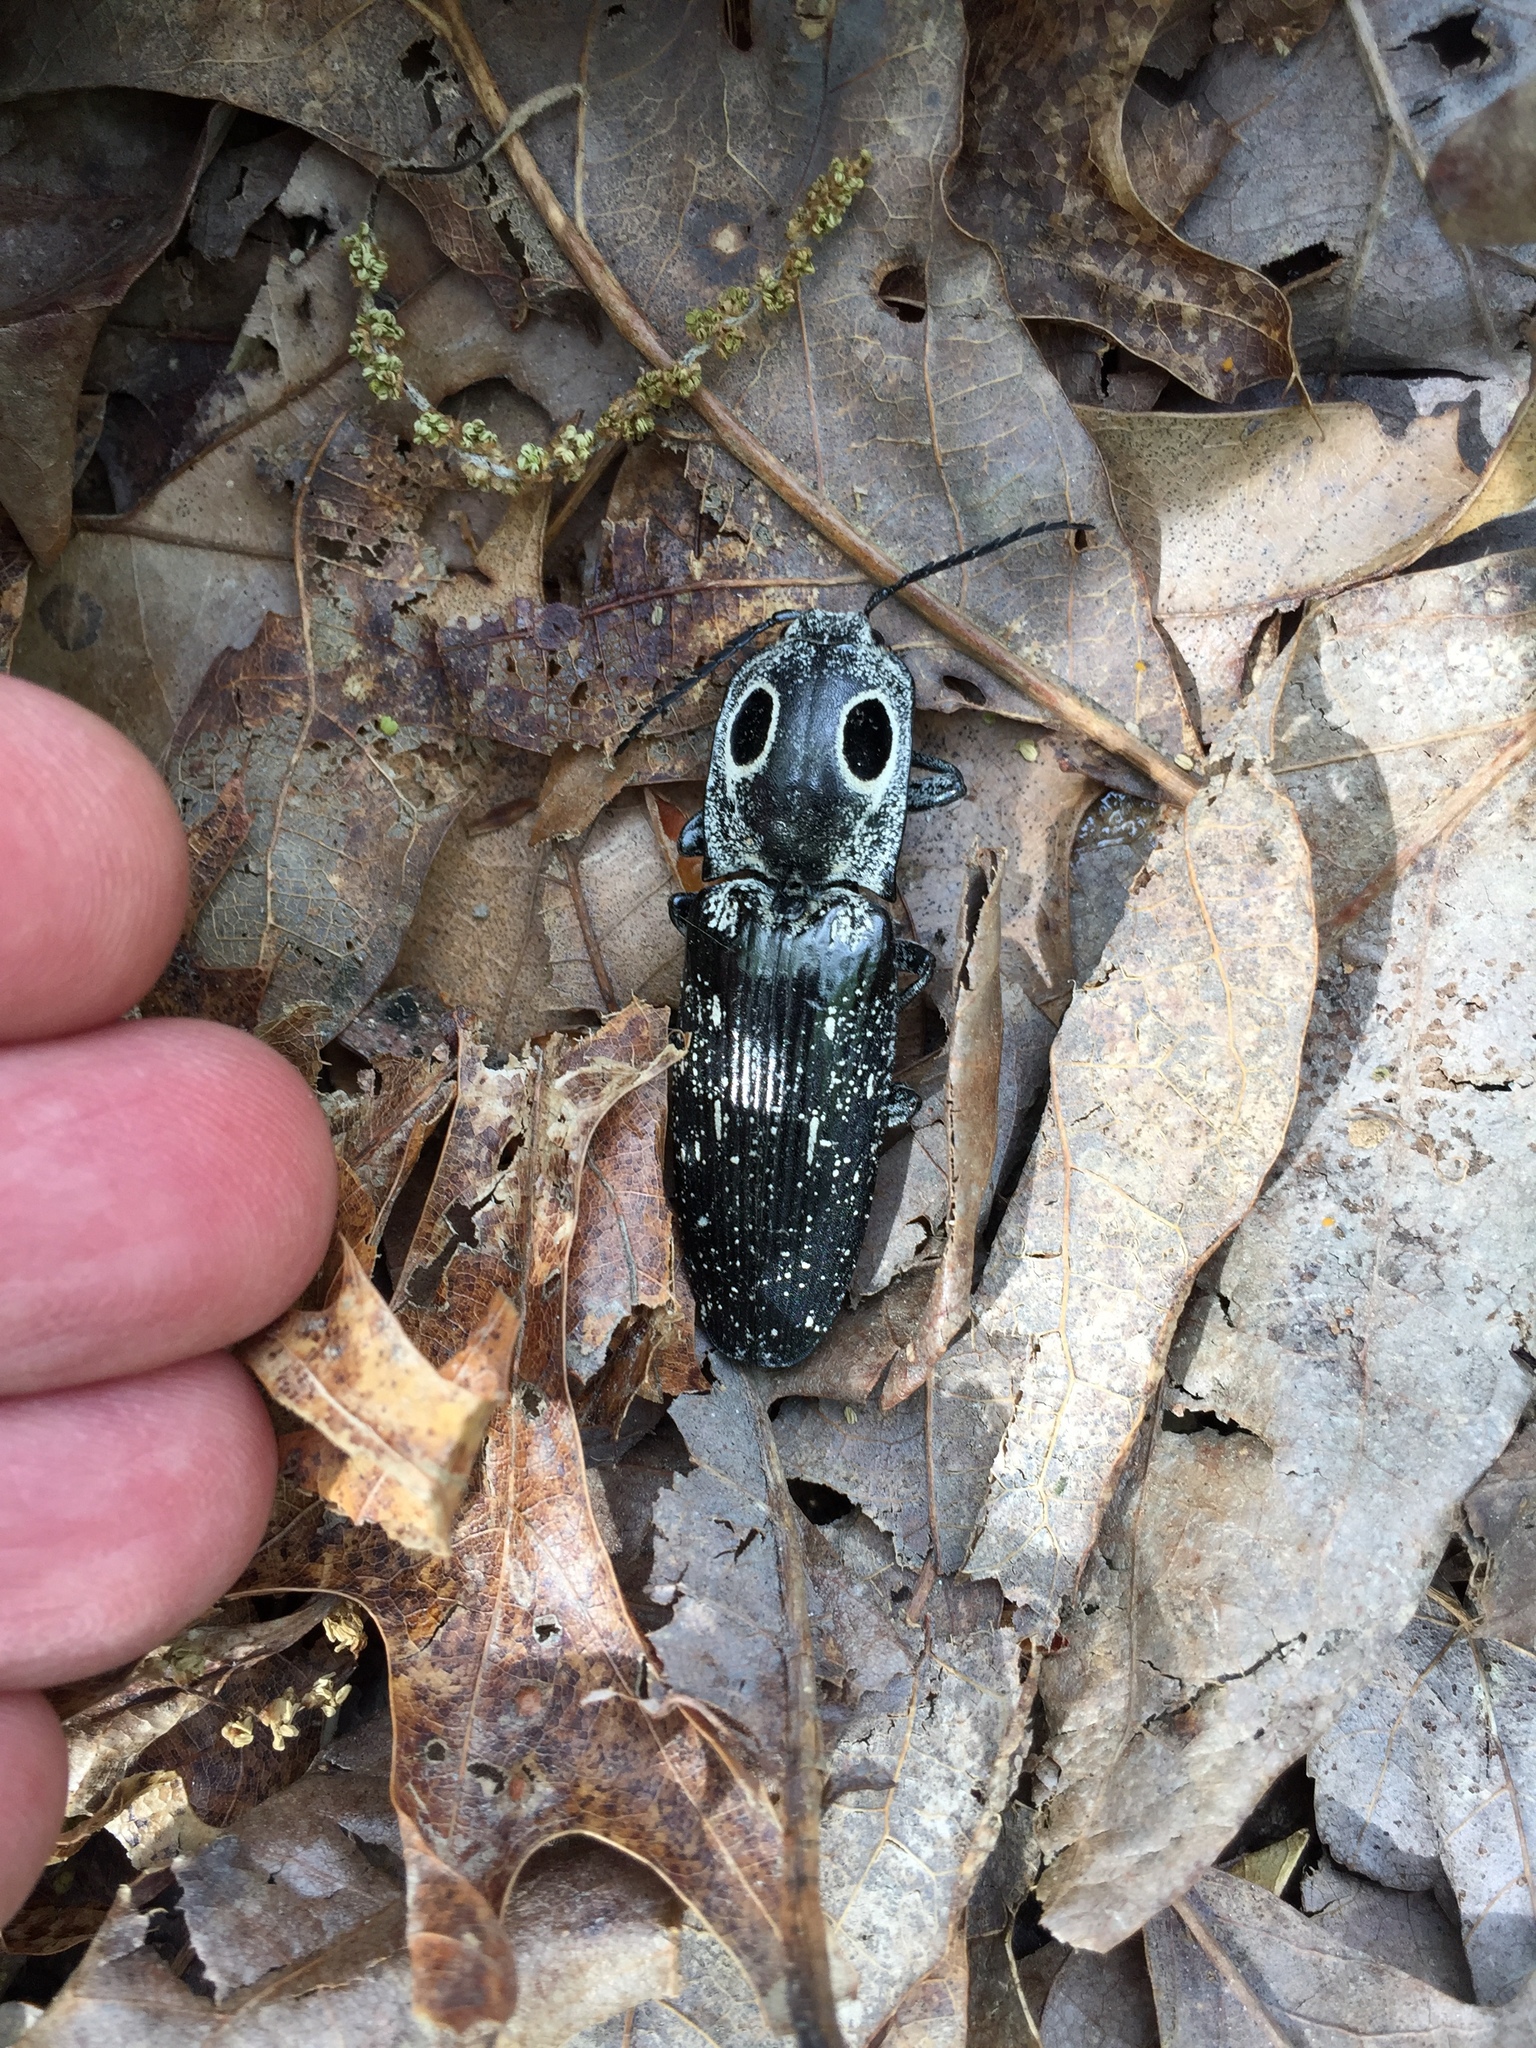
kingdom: Animalia
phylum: Arthropoda
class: Insecta
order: Coleoptera
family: Elateridae
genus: Alaus
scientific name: Alaus oculatus
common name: Eastern eyed click beetle
